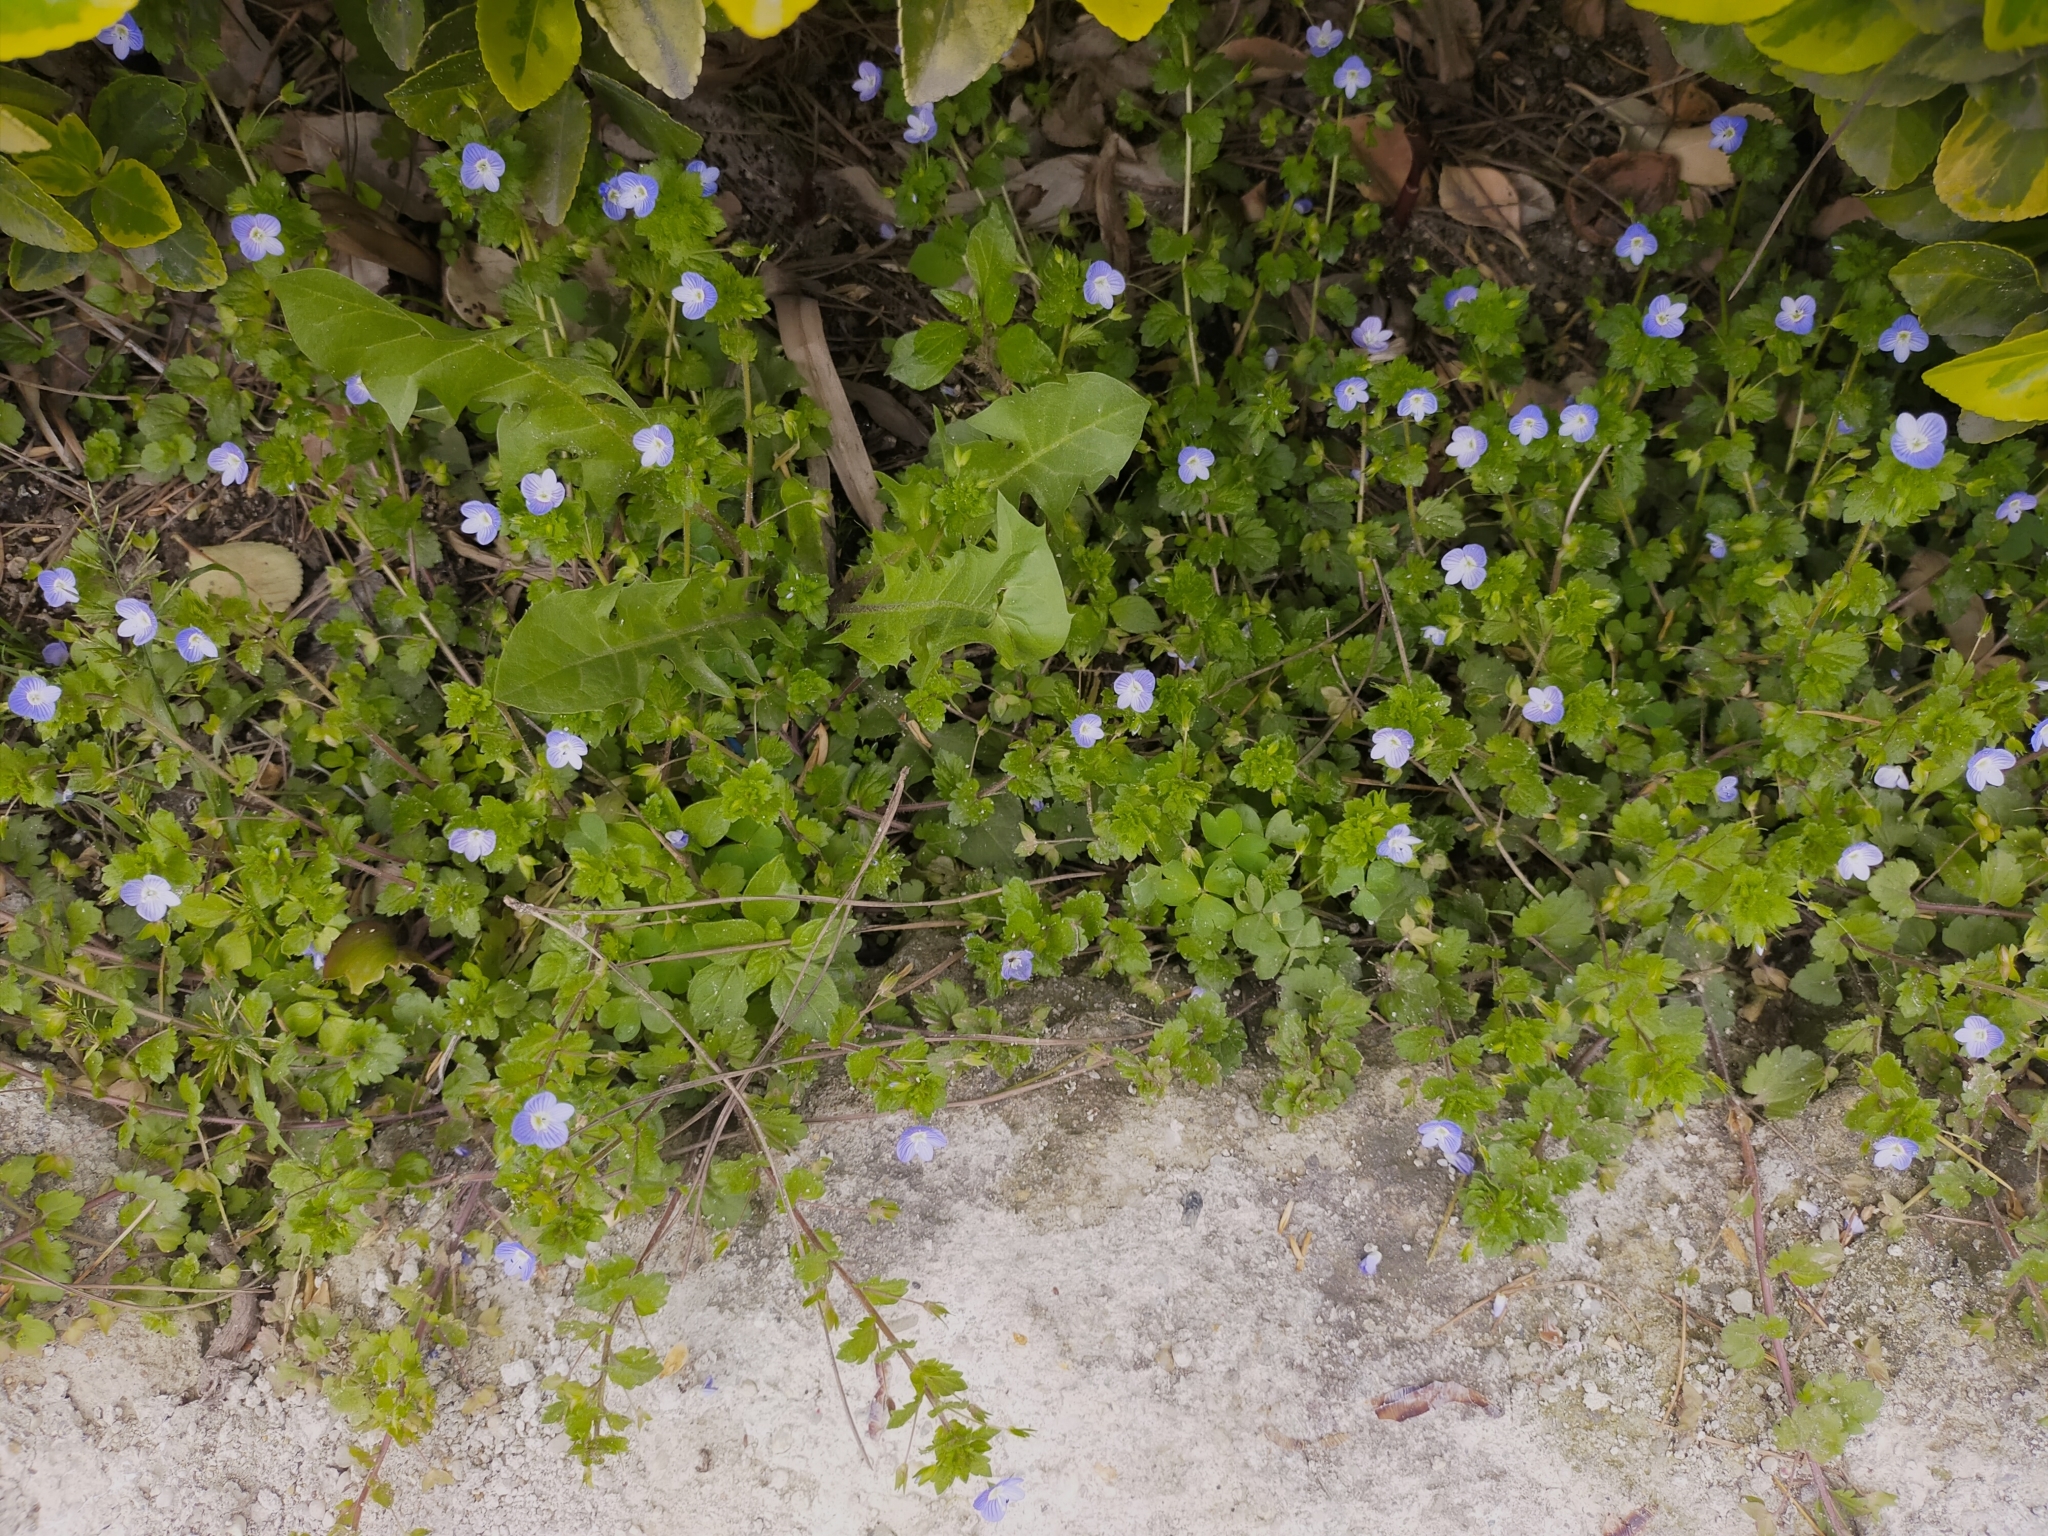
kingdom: Plantae
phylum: Tracheophyta
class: Magnoliopsida
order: Lamiales
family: Plantaginaceae
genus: Veronica
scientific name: Veronica persica
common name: Common field-speedwell
